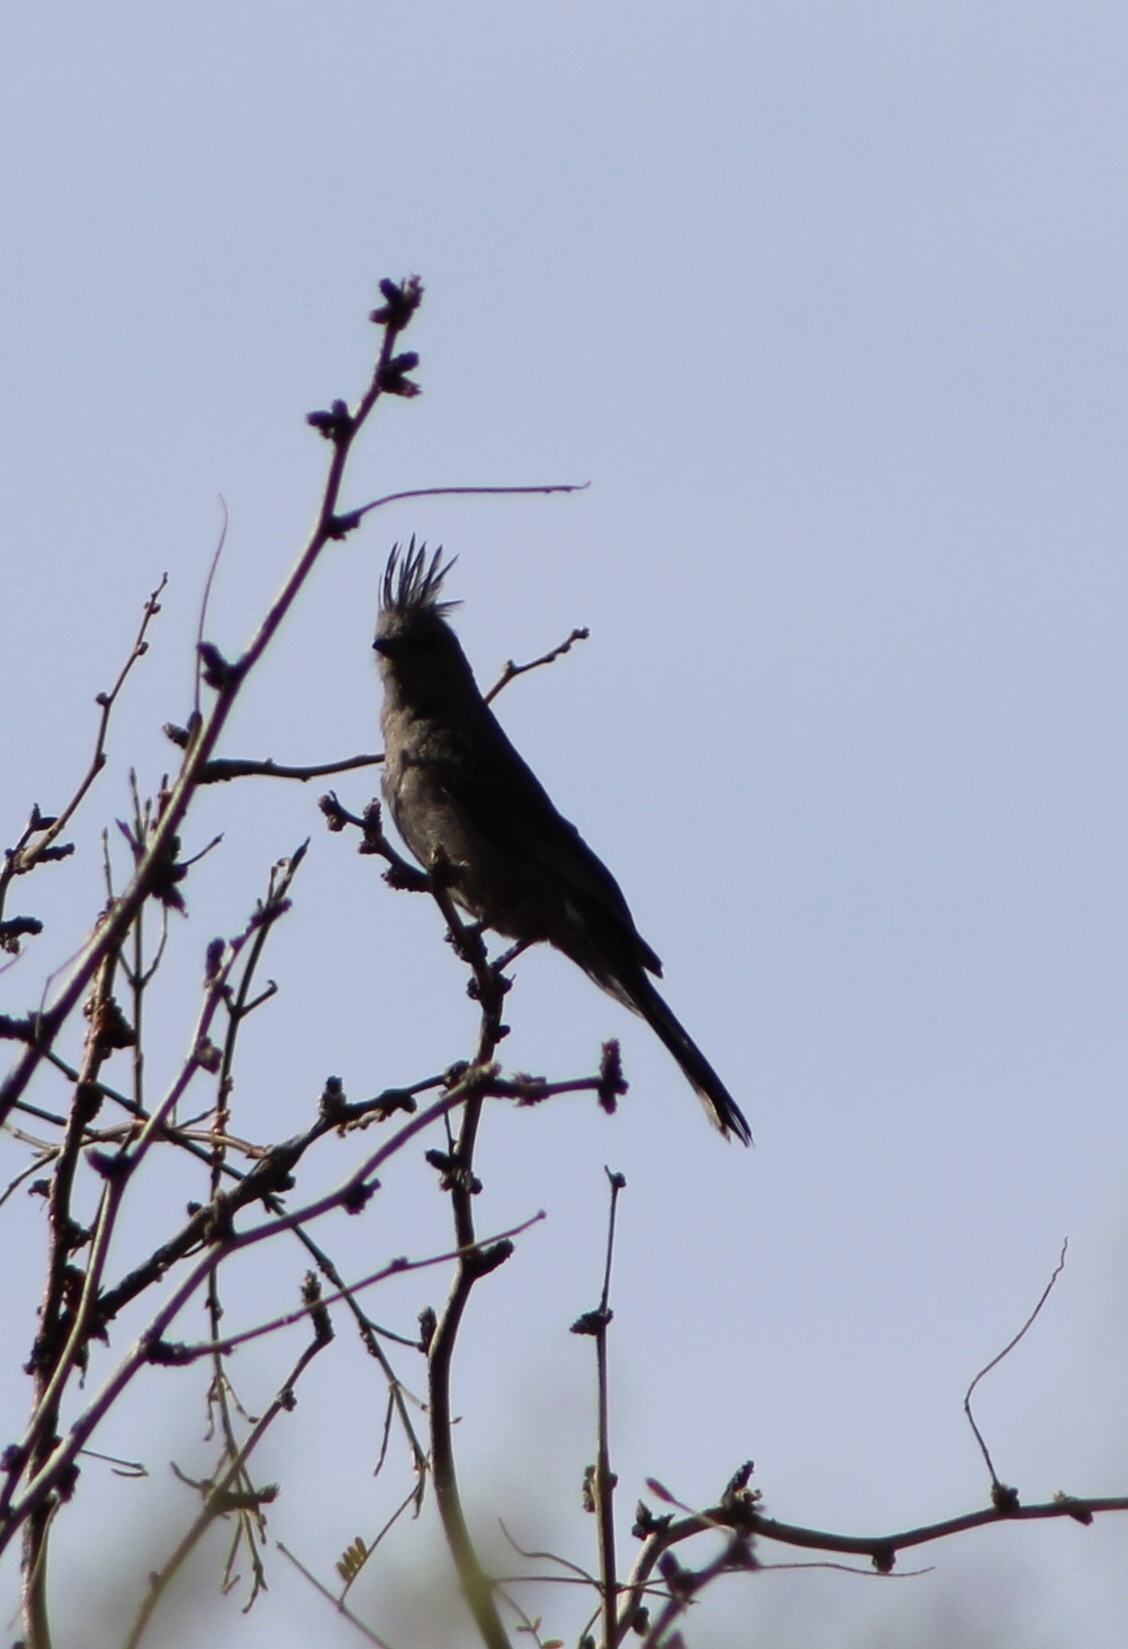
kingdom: Animalia
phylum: Chordata
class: Aves
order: Passeriformes
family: Ptilogonatidae
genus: Phainopepla
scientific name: Phainopepla nitens
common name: Phainopepla
